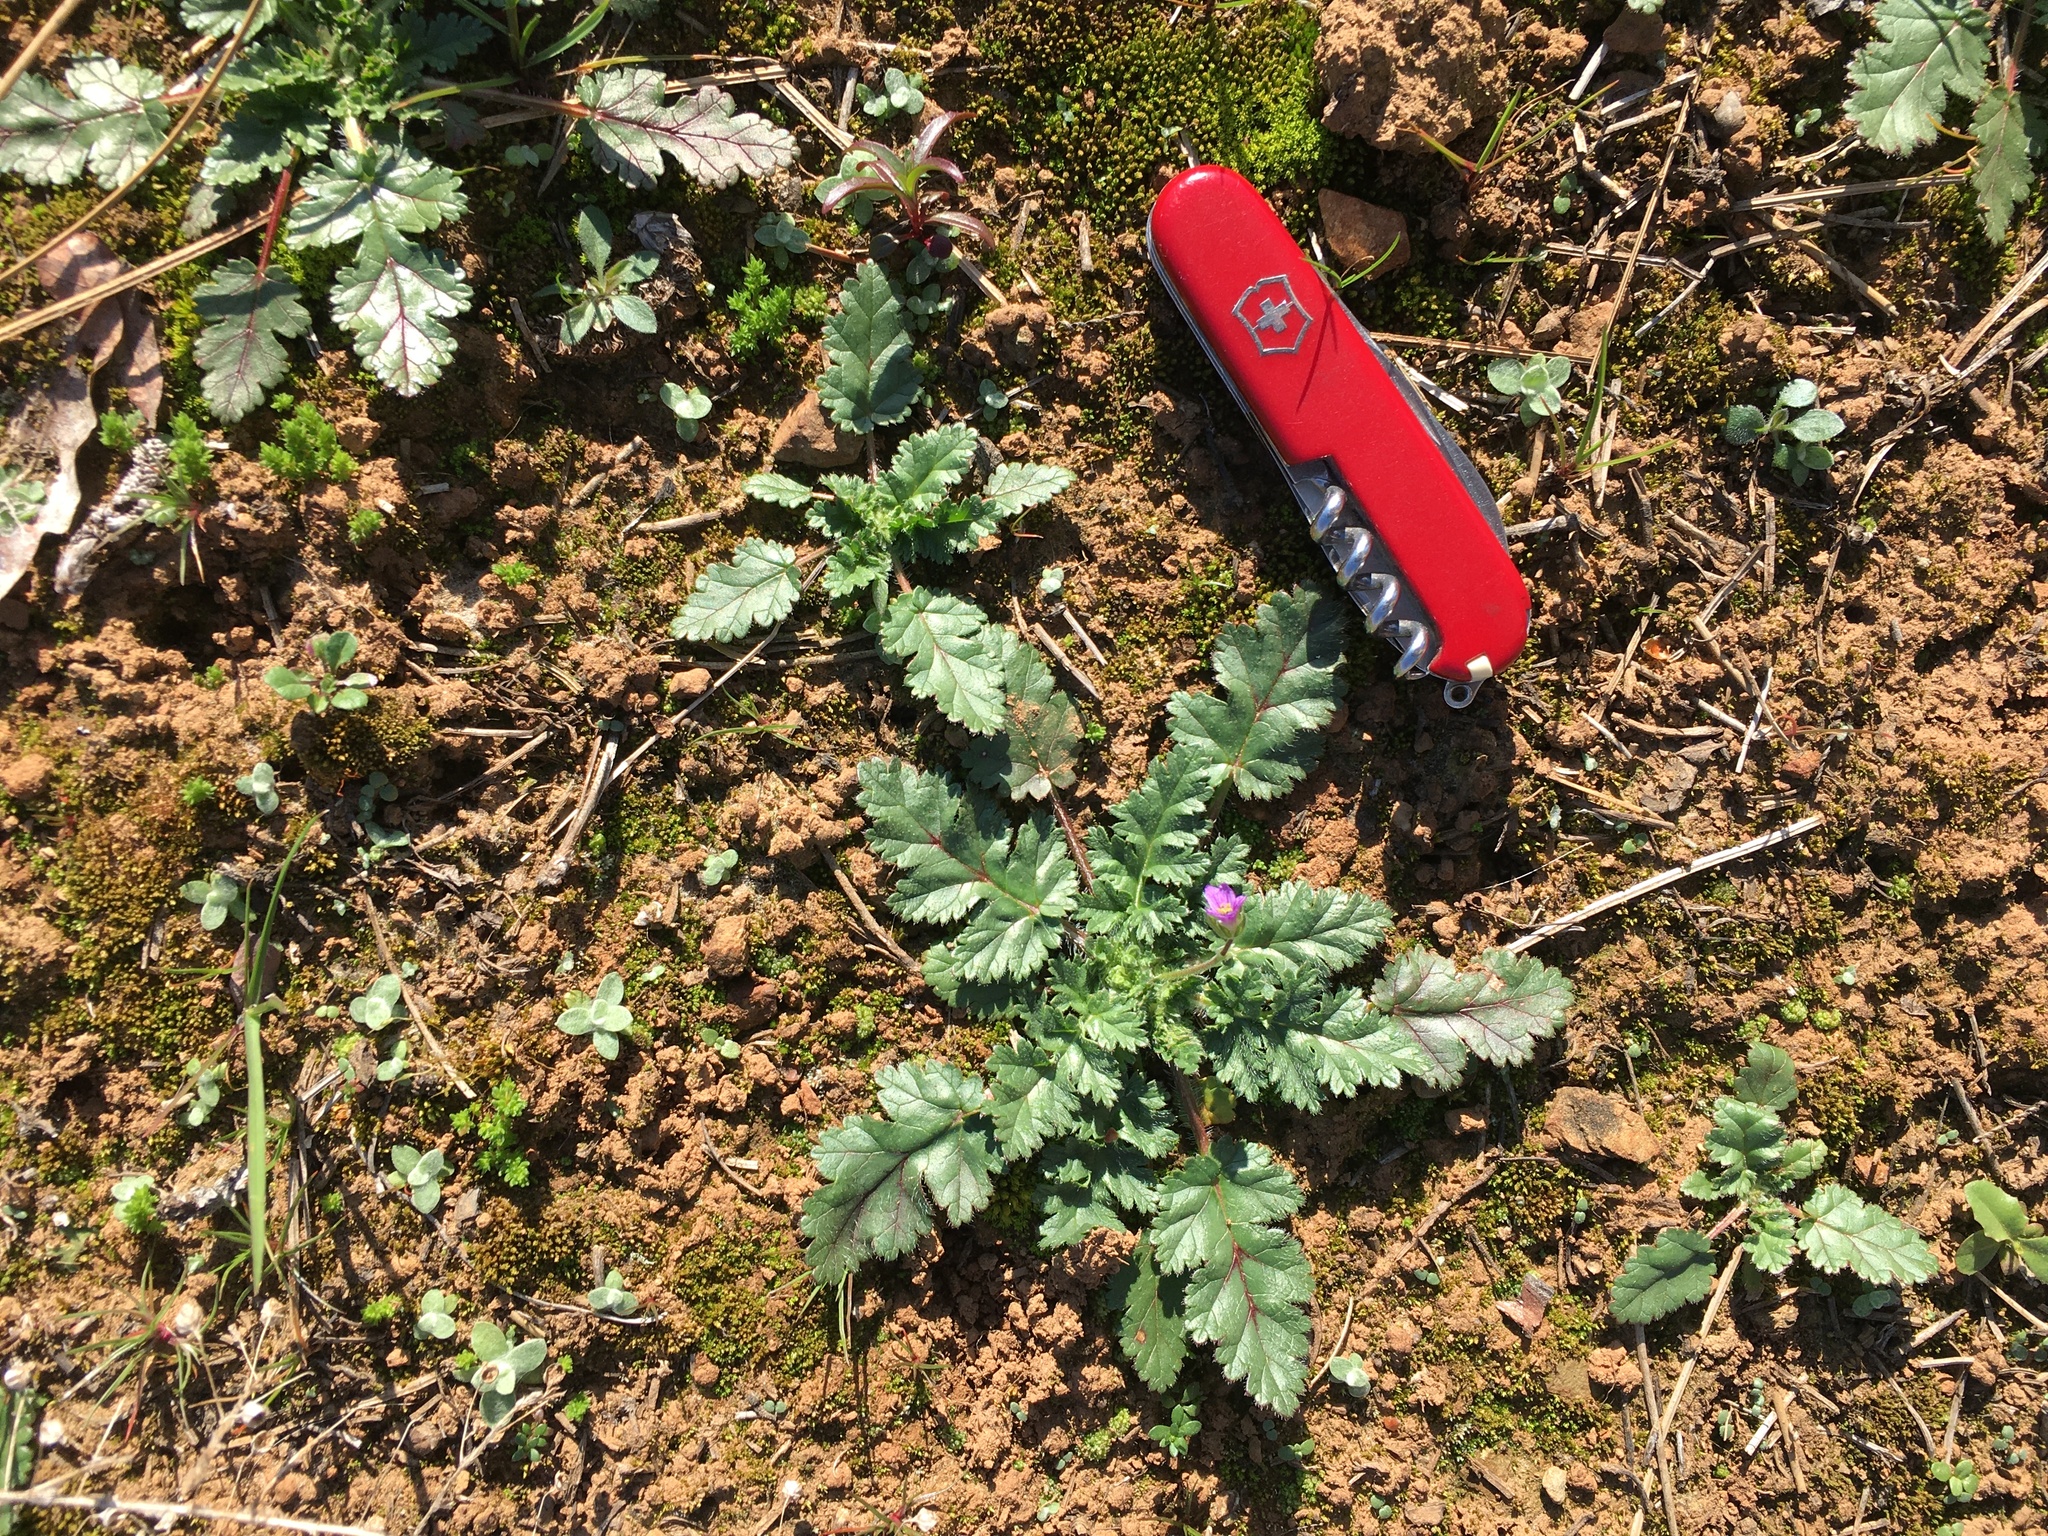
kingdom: Plantae
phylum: Tracheophyta
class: Magnoliopsida
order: Geraniales
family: Geraniaceae
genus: Erodium
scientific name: Erodium brachycarpum
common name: Hairy-pitted stork's-bill
